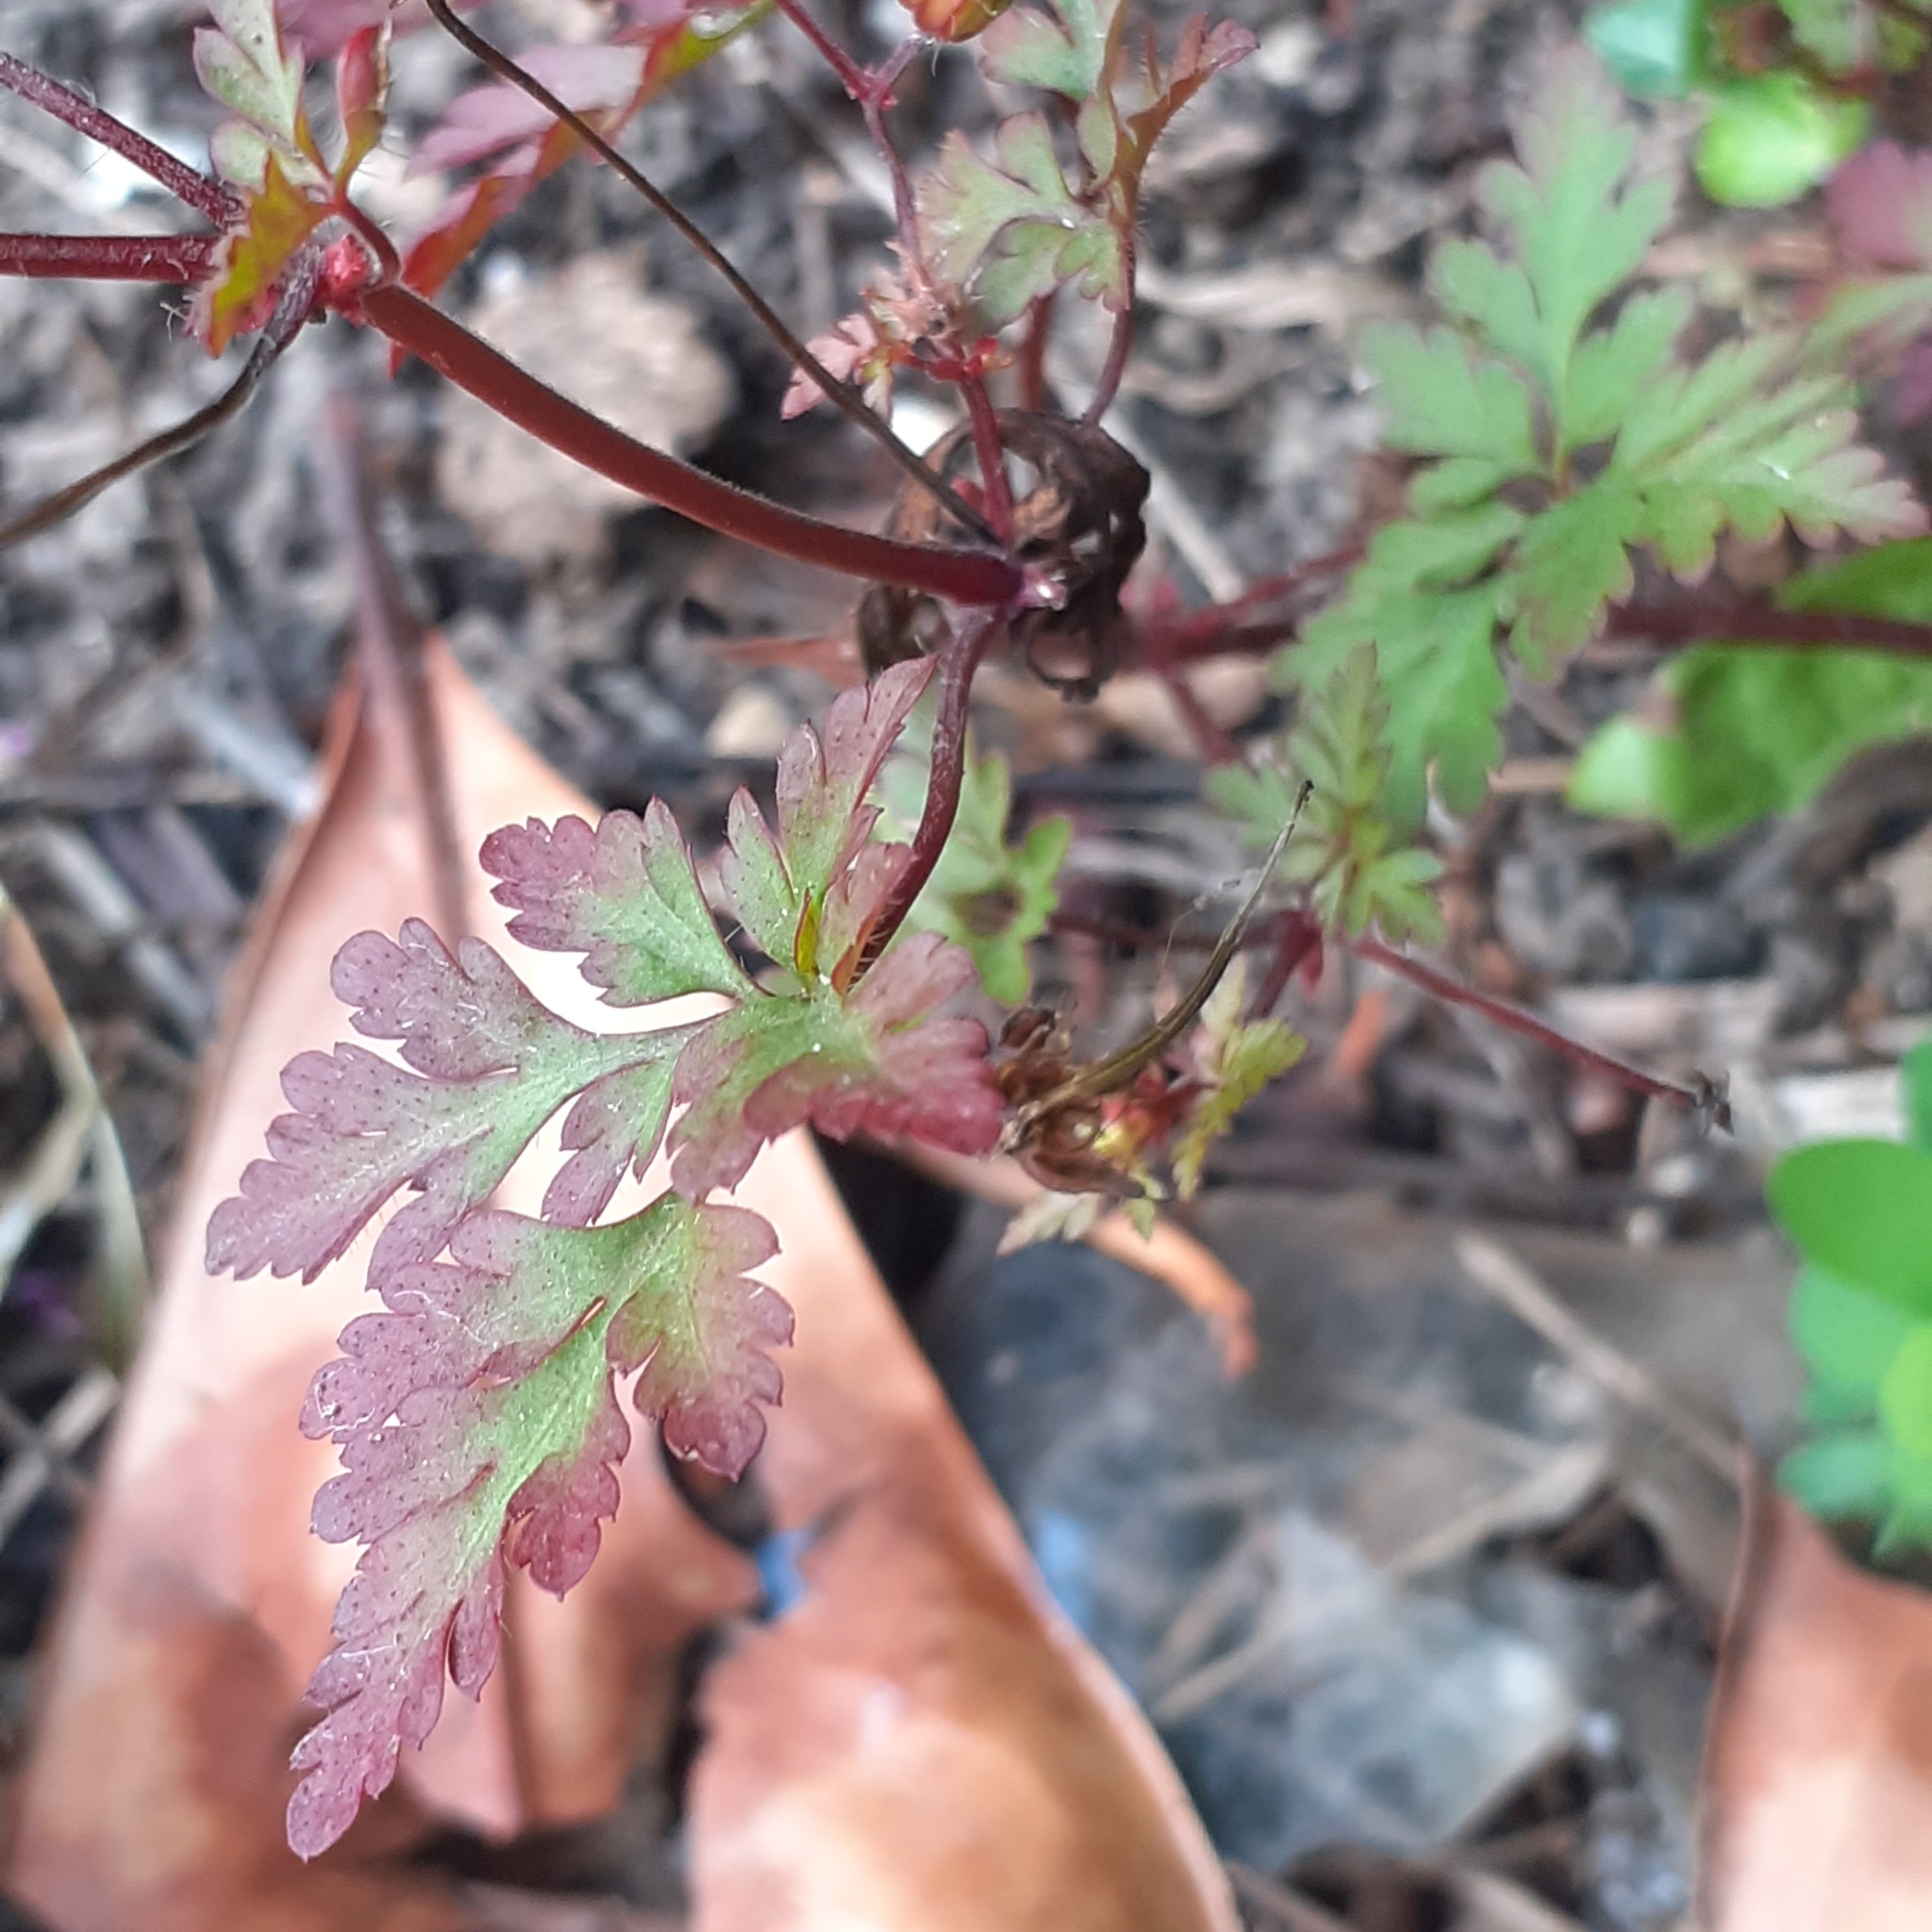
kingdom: Plantae
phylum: Tracheophyta
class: Magnoliopsida
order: Geraniales
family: Geraniaceae
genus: Geranium
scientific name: Geranium robertianum
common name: Herb-robert
